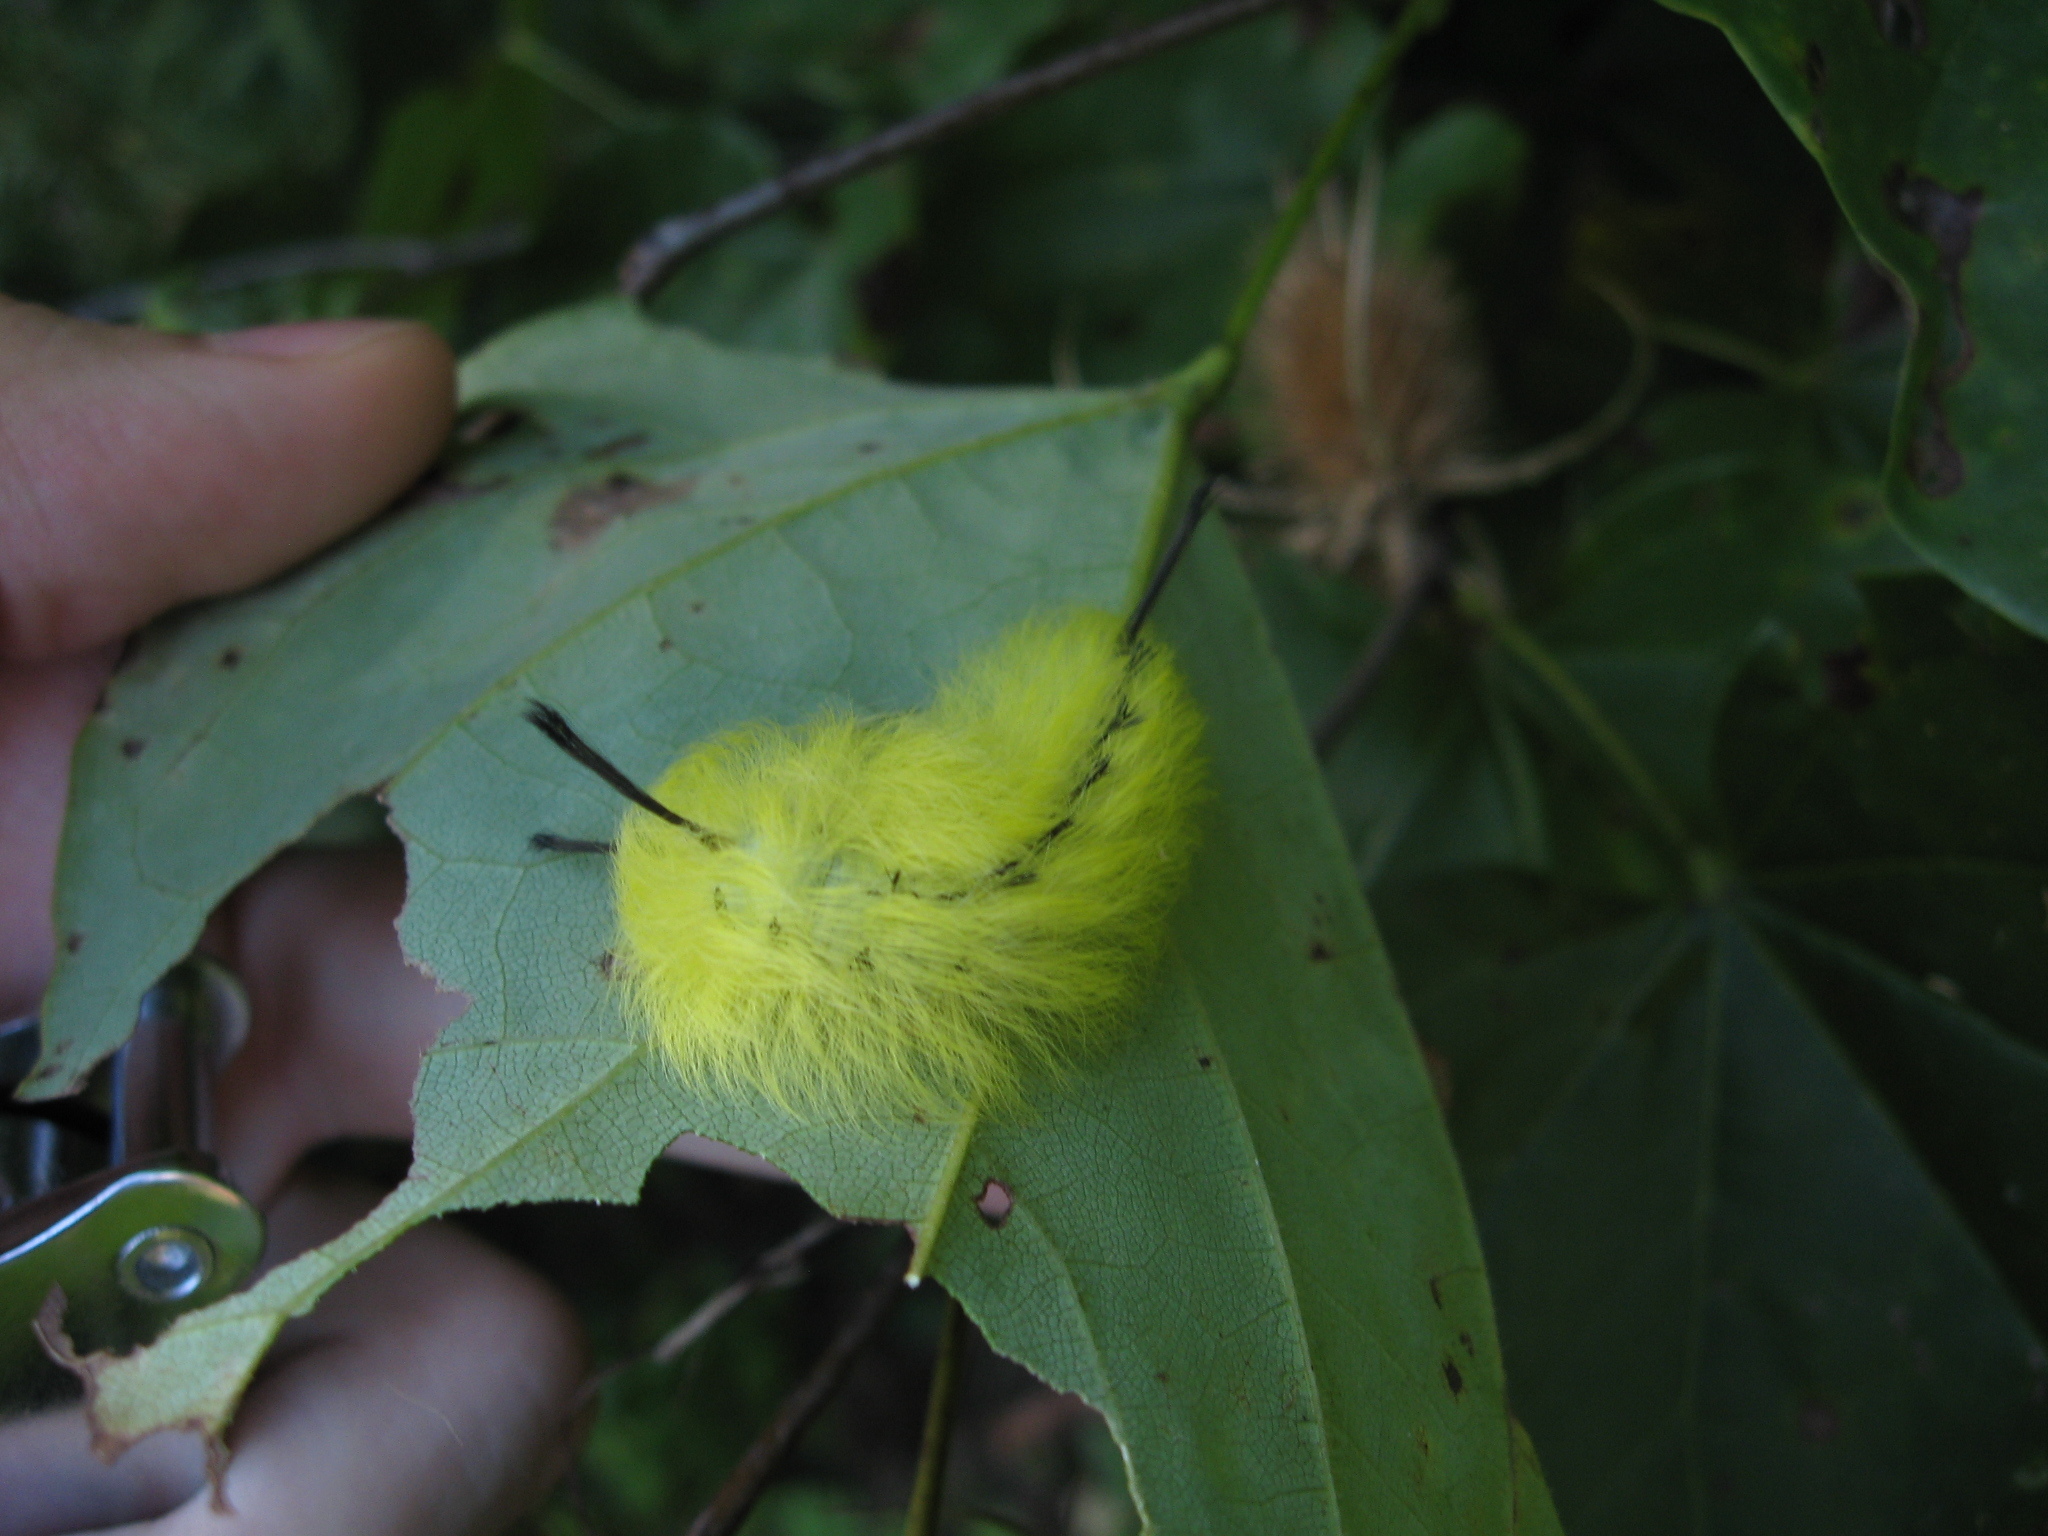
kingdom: Animalia
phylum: Arthropoda
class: Insecta
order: Lepidoptera
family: Apatelodidae
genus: Hygrochroa
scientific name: Hygrochroa Apatelodes torrefacta
